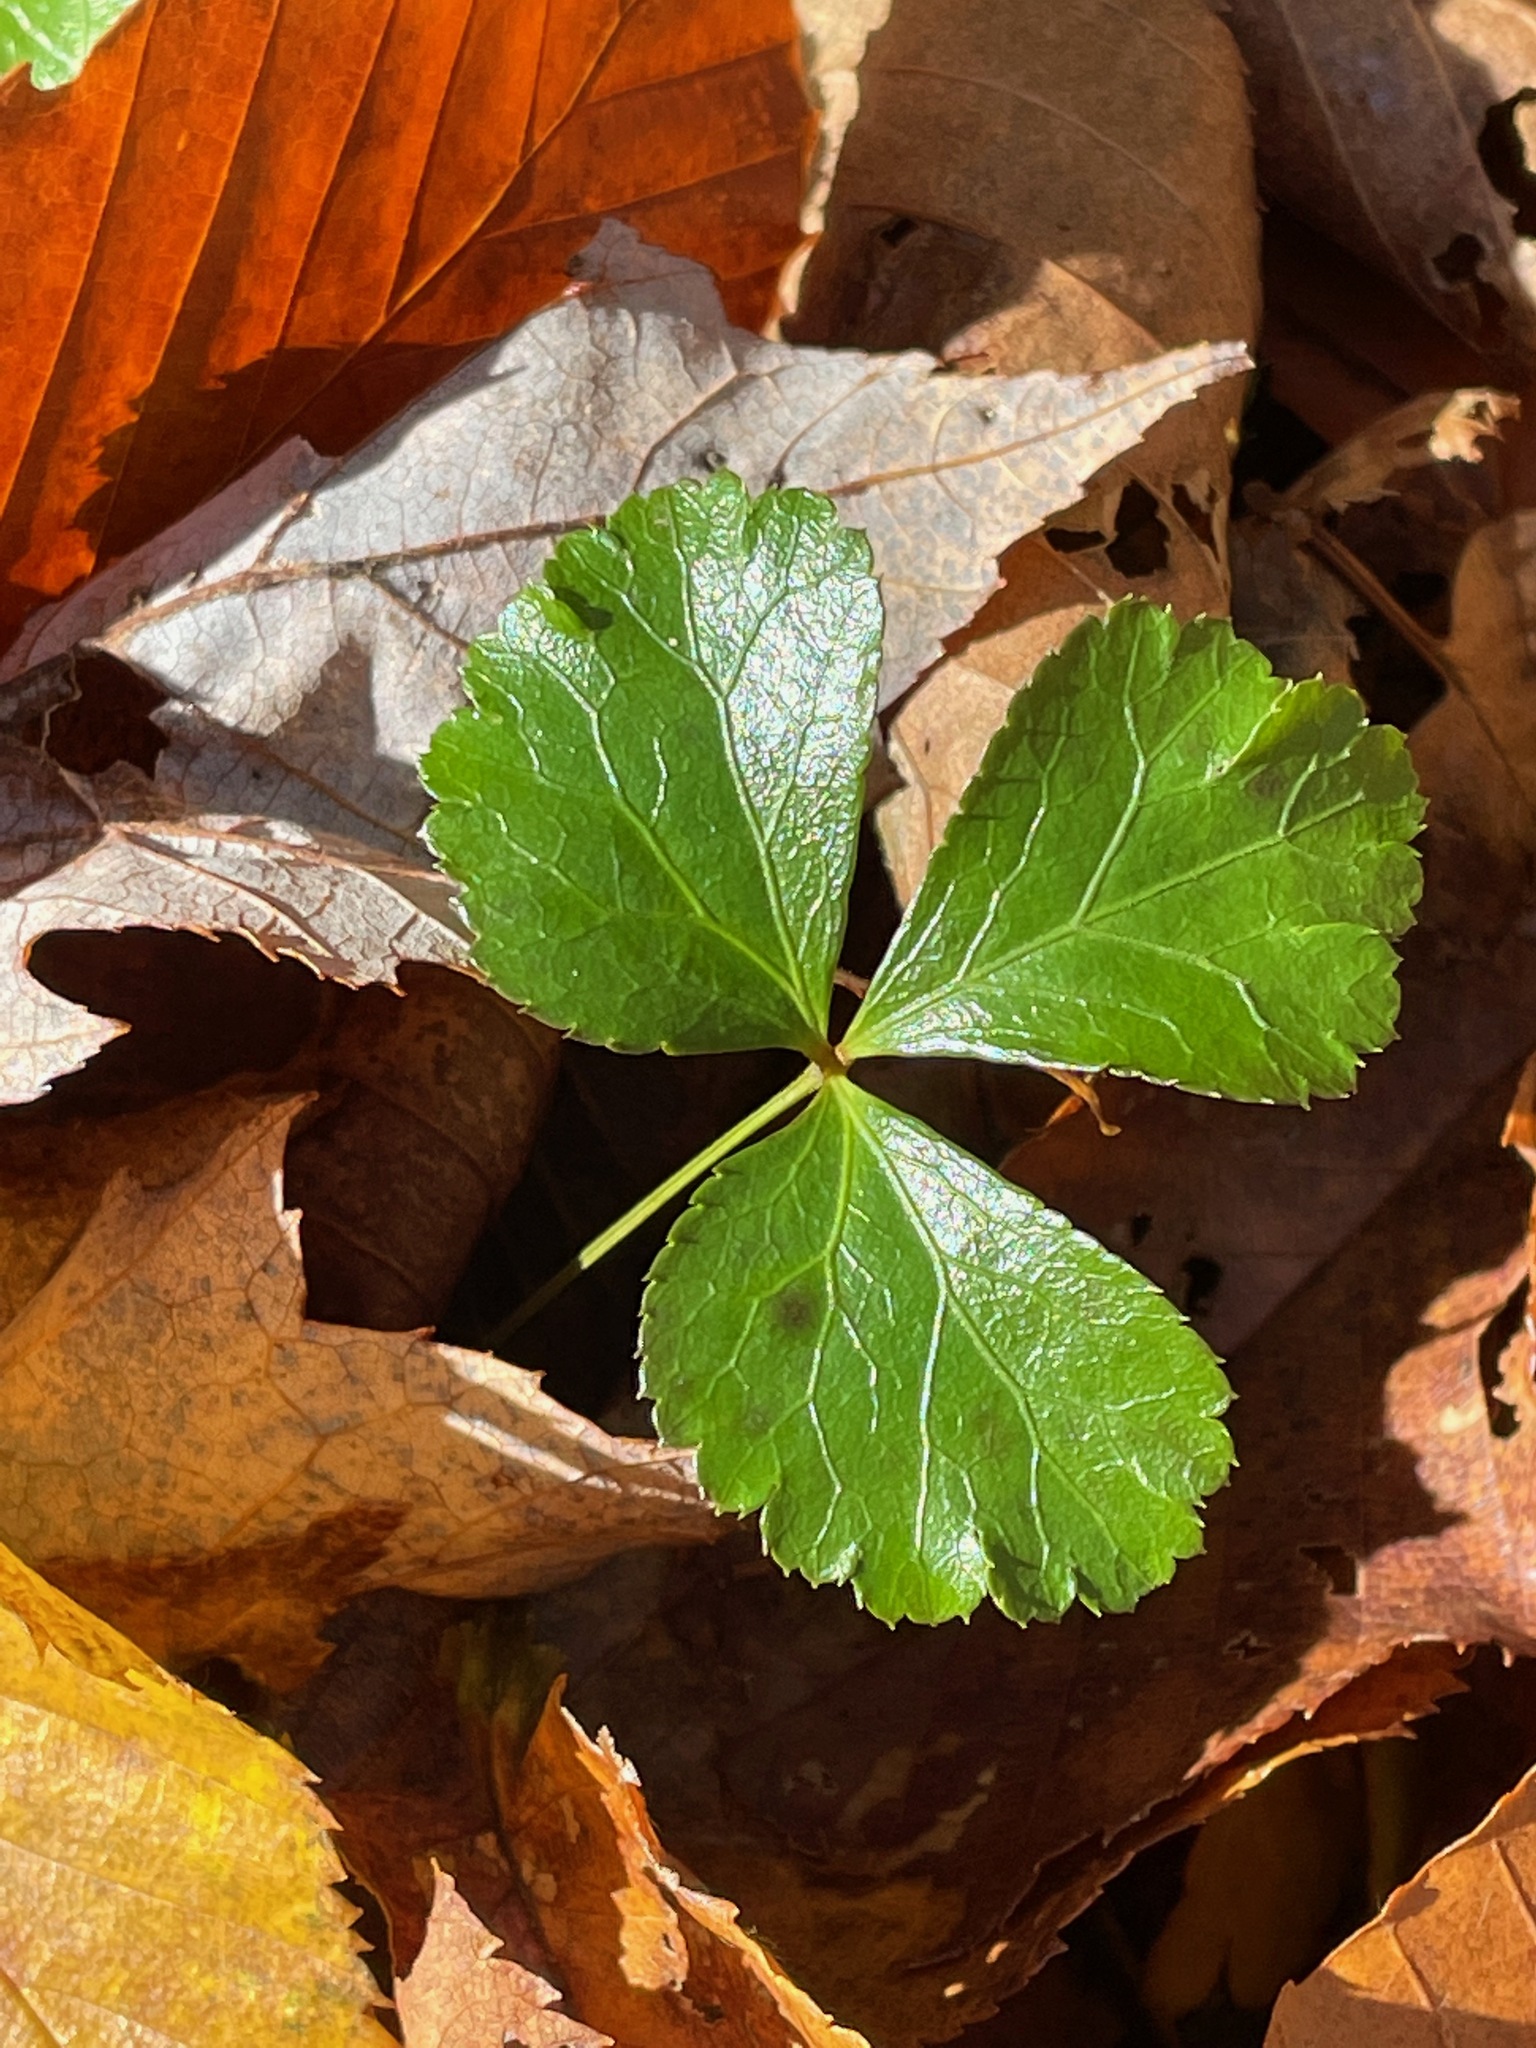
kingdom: Plantae
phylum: Tracheophyta
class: Magnoliopsida
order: Ranunculales
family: Ranunculaceae
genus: Coptis
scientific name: Coptis trifolia
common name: Canker-root
